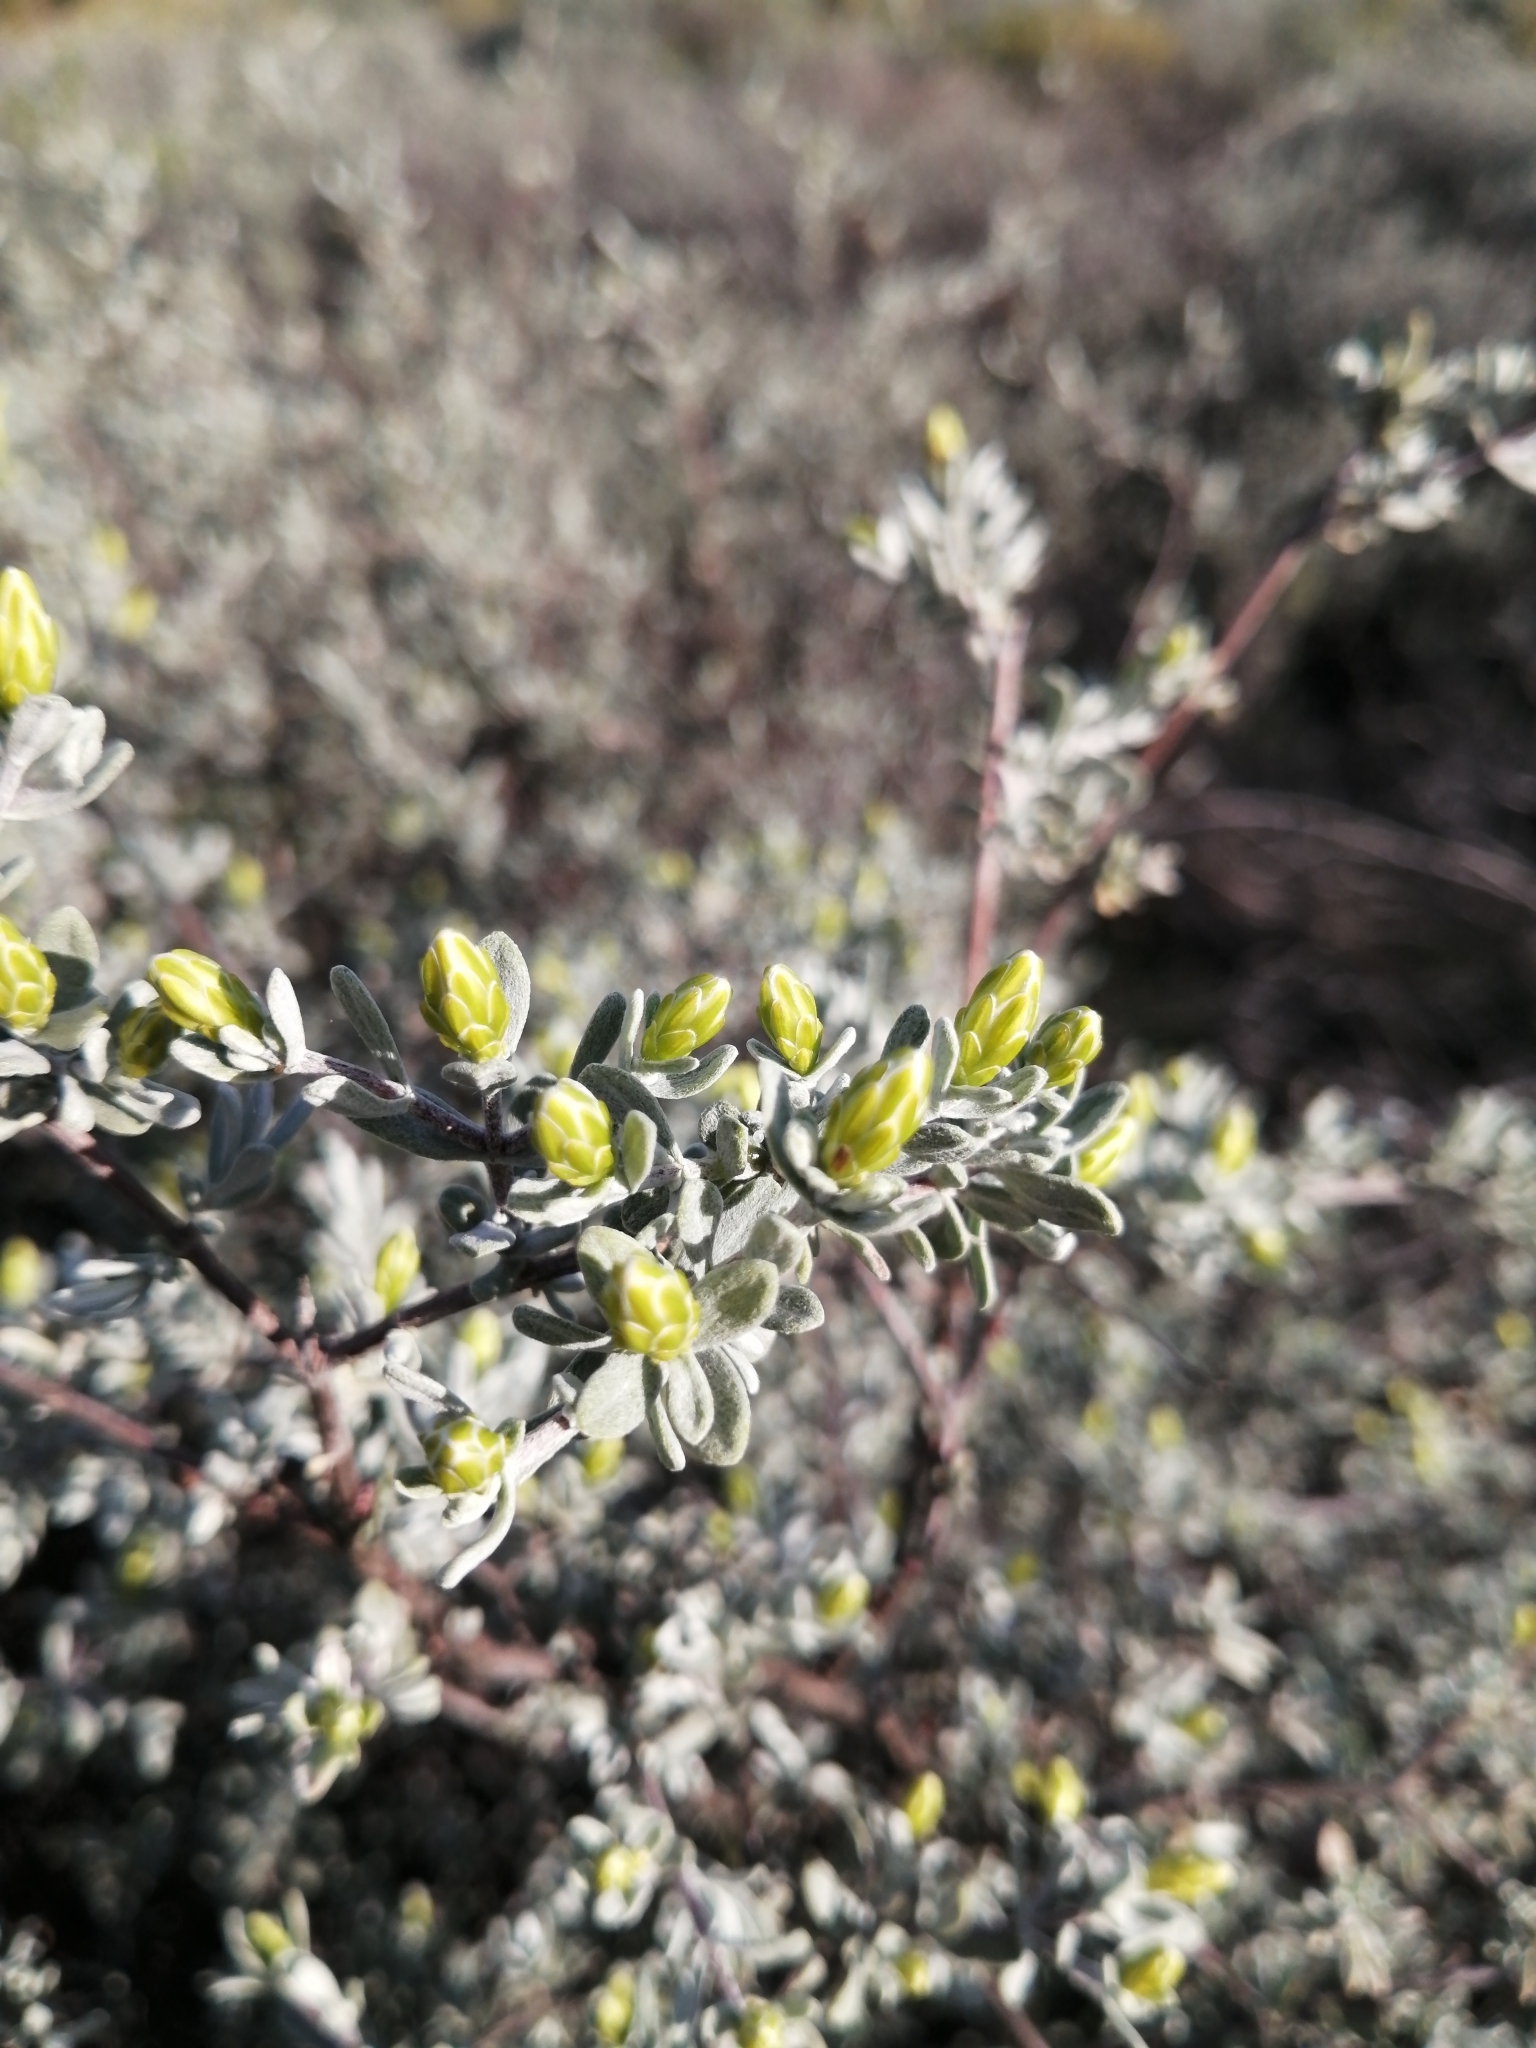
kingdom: Plantae
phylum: Tracheophyta
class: Magnoliopsida
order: Asterales
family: Asteraceae
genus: Pteronia
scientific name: Pteronia incana
